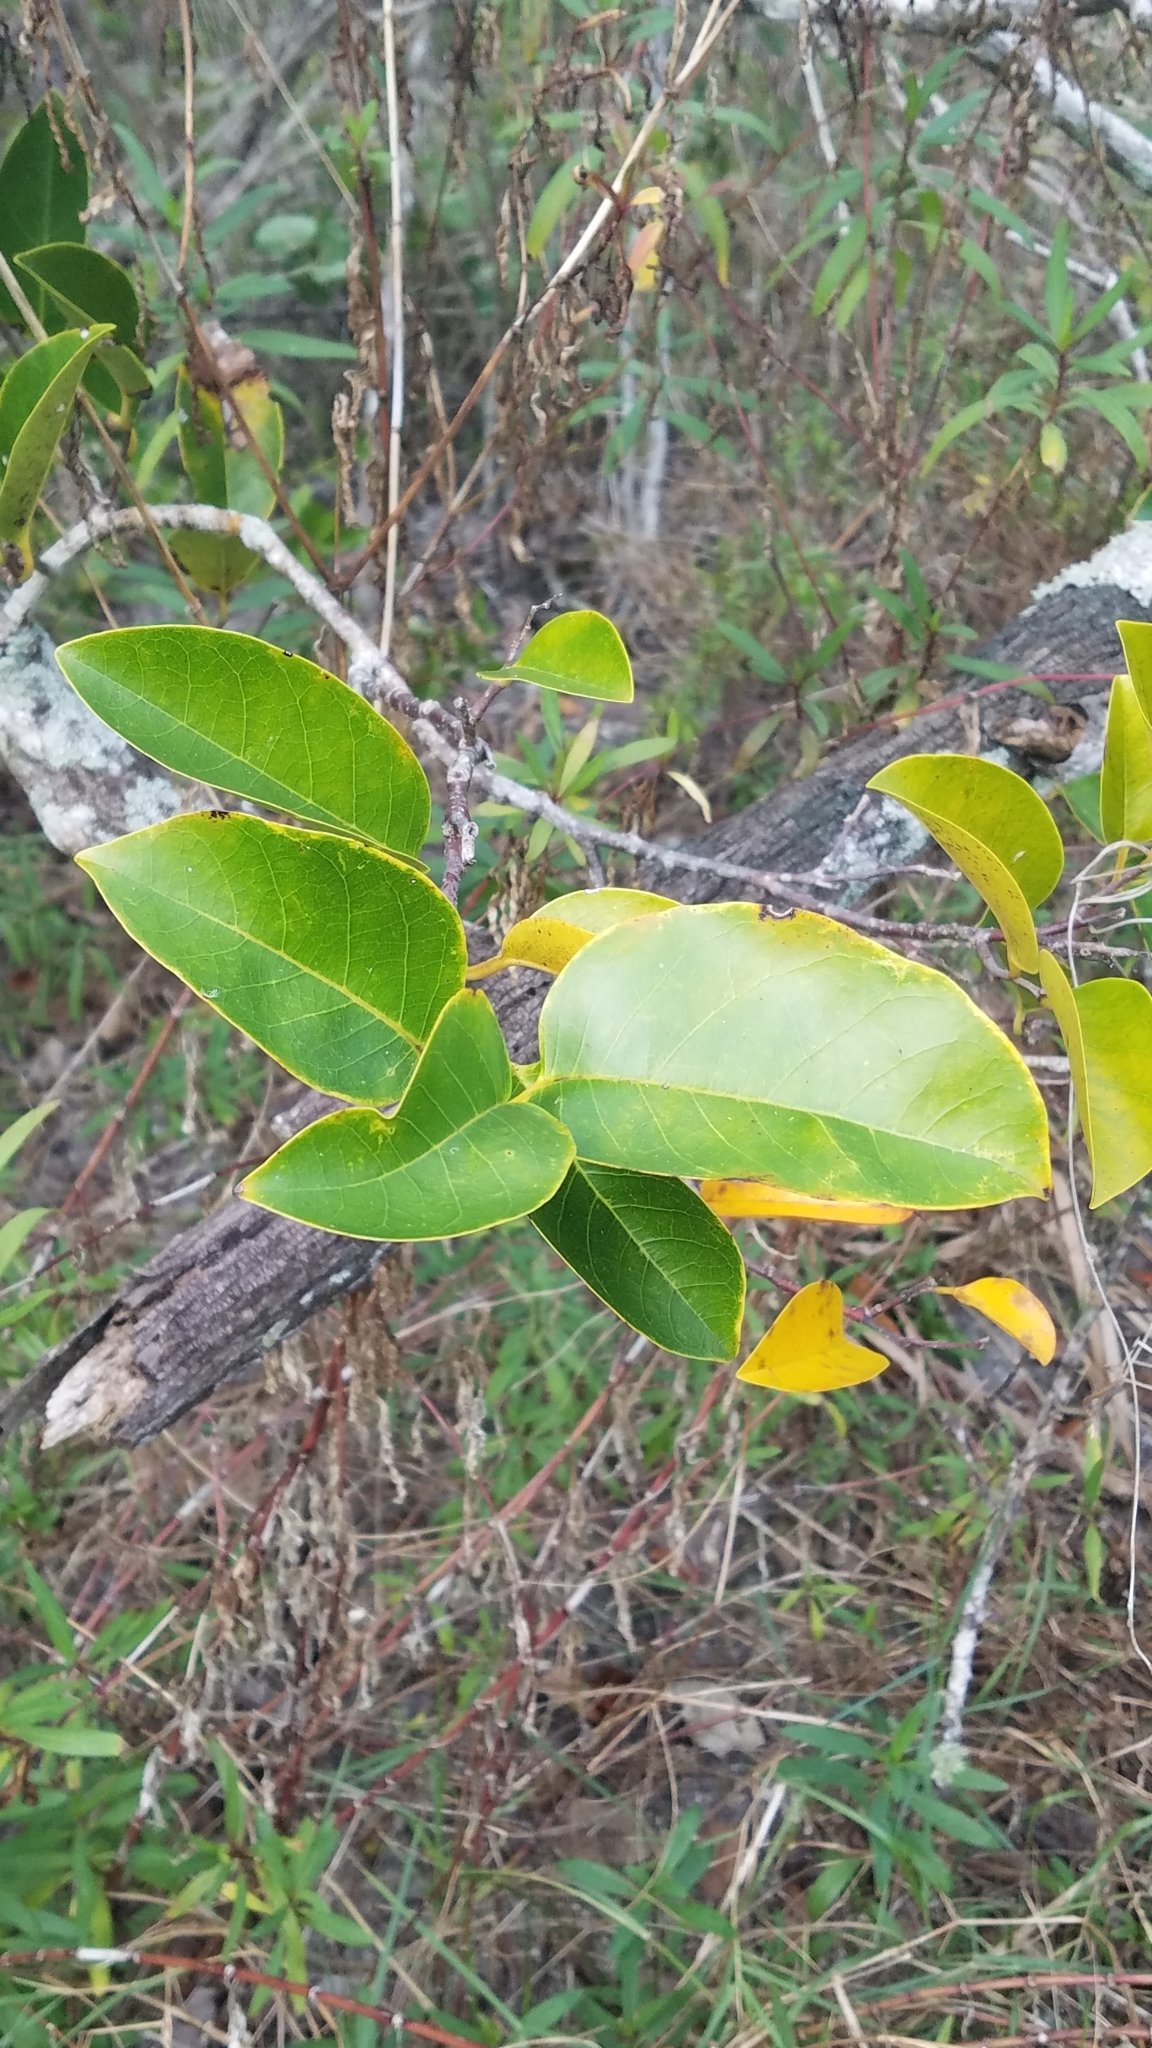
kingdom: Plantae
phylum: Tracheophyta
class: Magnoliopsida
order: Magnoliales
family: Annonaceae
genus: Annona
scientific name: Annona glabra
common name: Monkey apple
